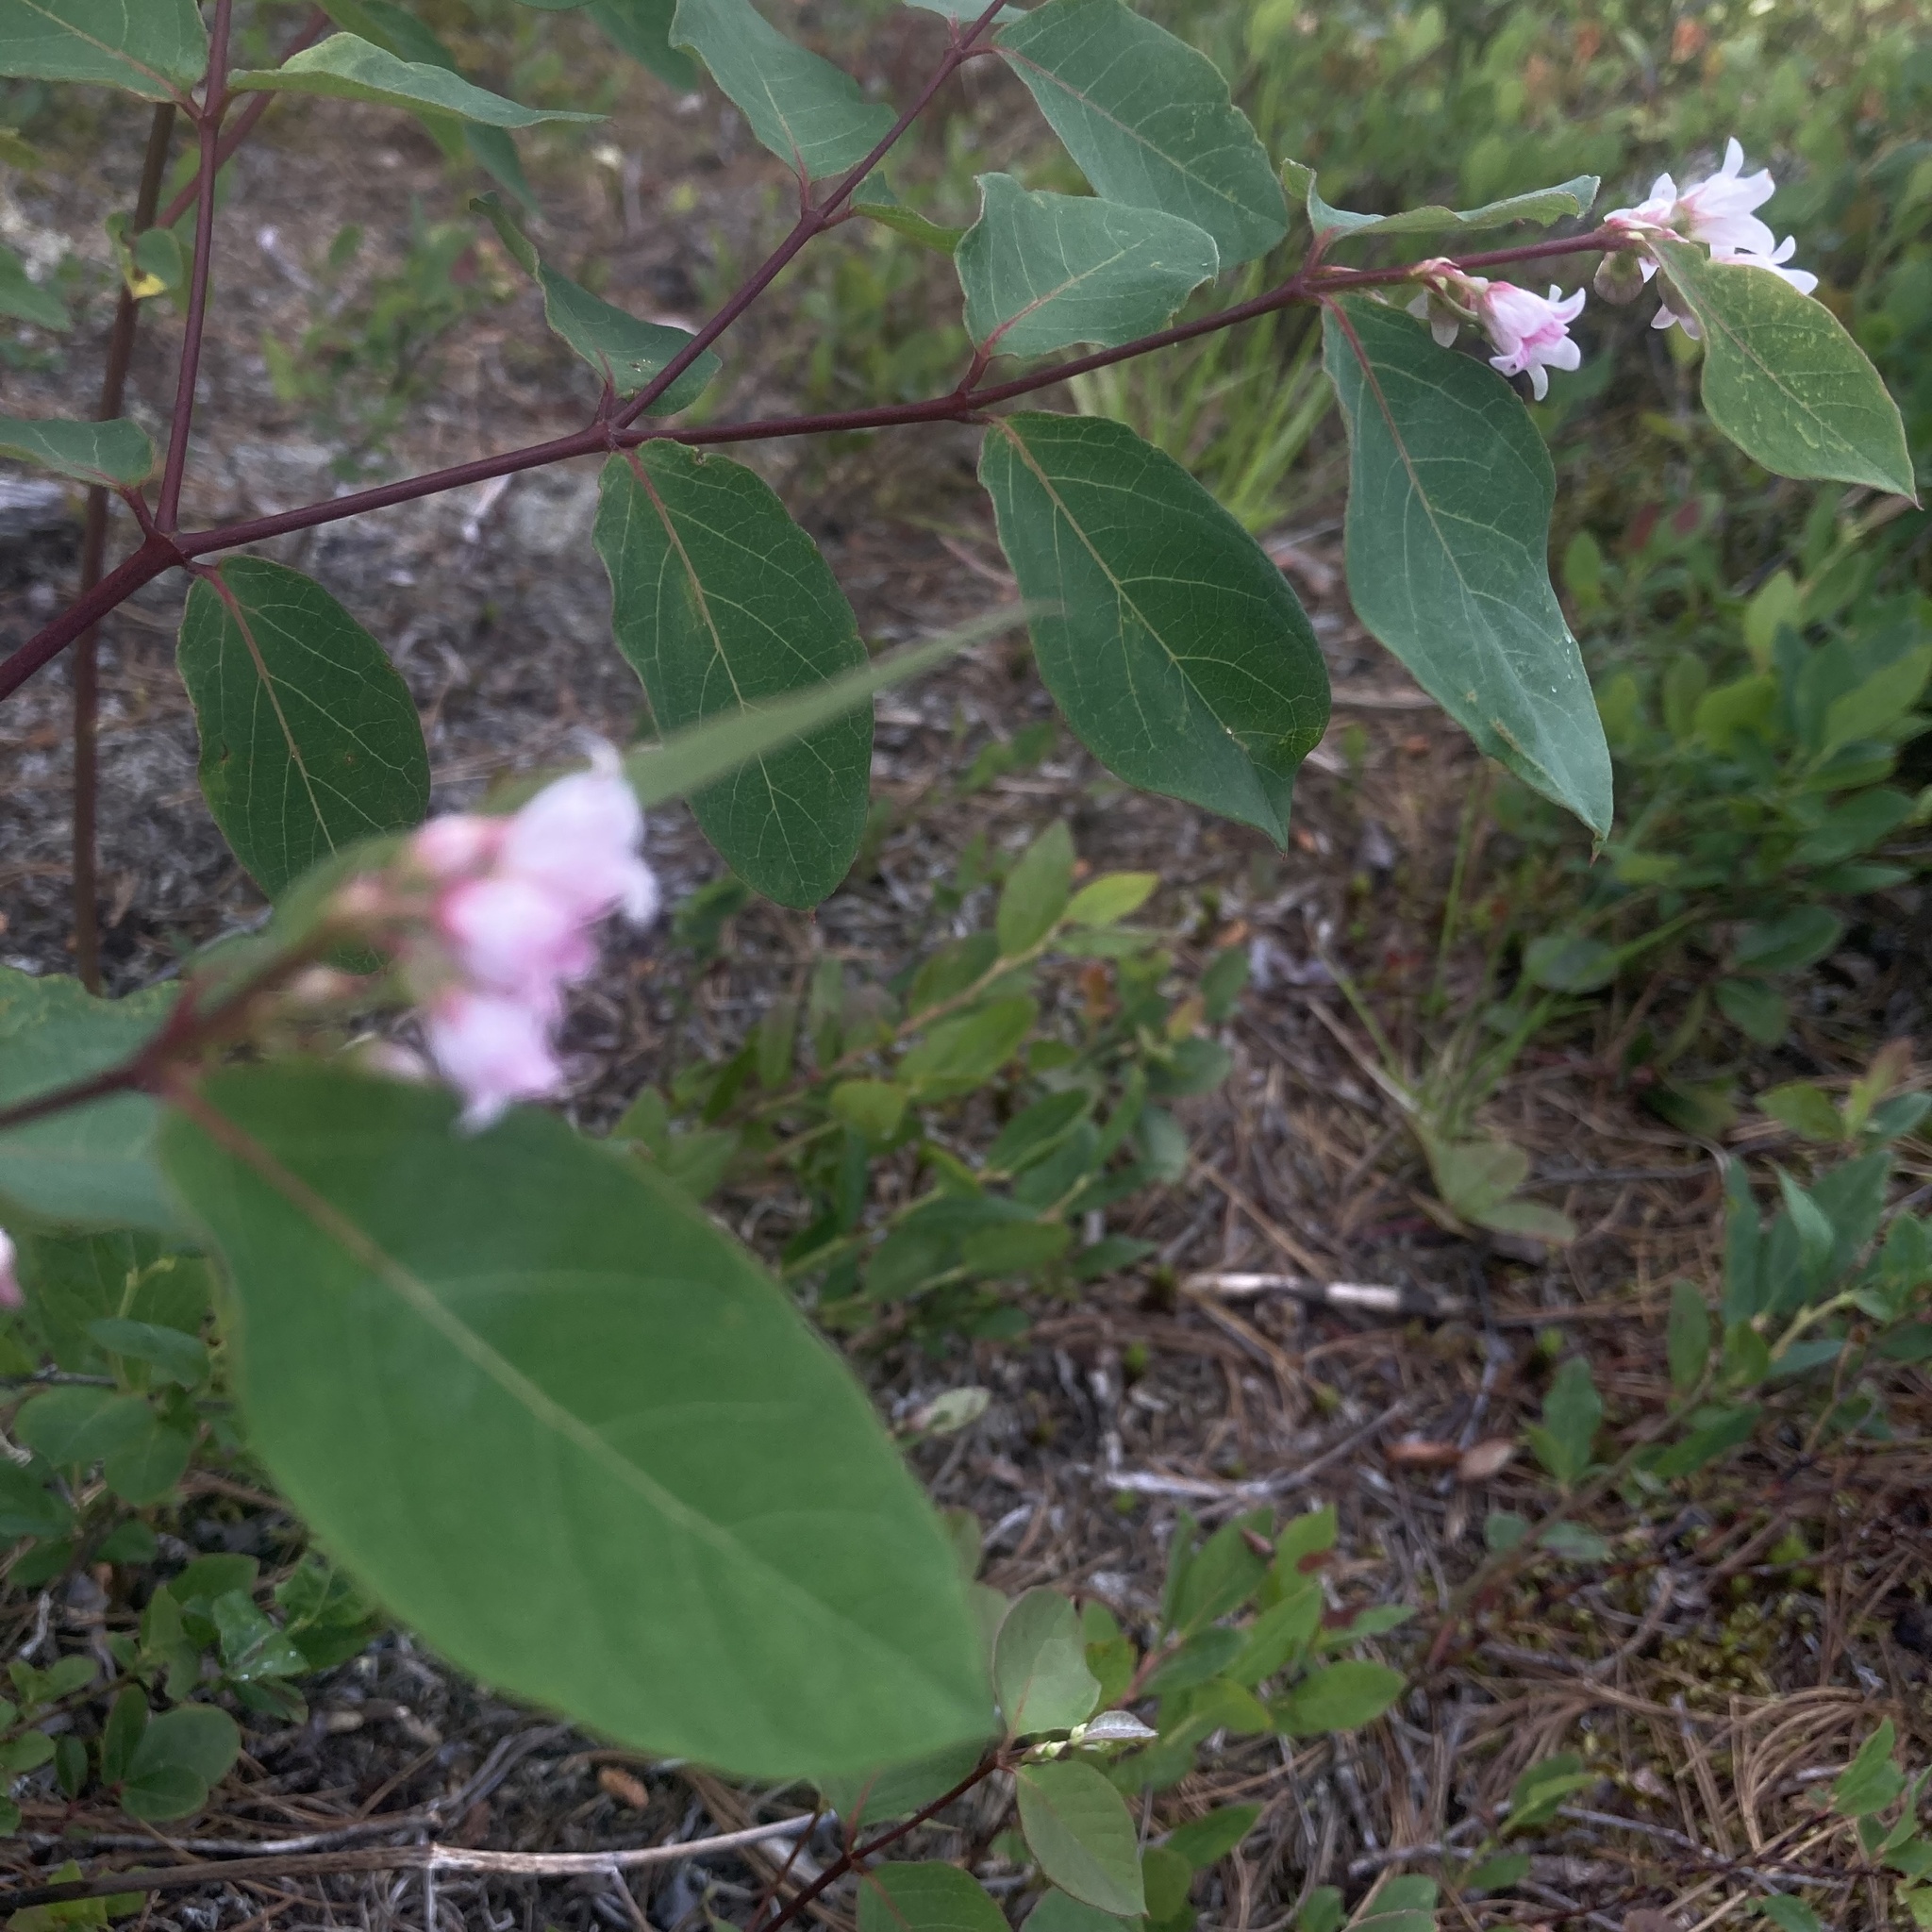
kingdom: Plantae
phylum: Tracheophyta
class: Magnoliopsida
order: Gentianales
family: Apocynaceae
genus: Apocynum
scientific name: Apocynum androsaemifolium
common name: Spreading dogbane
